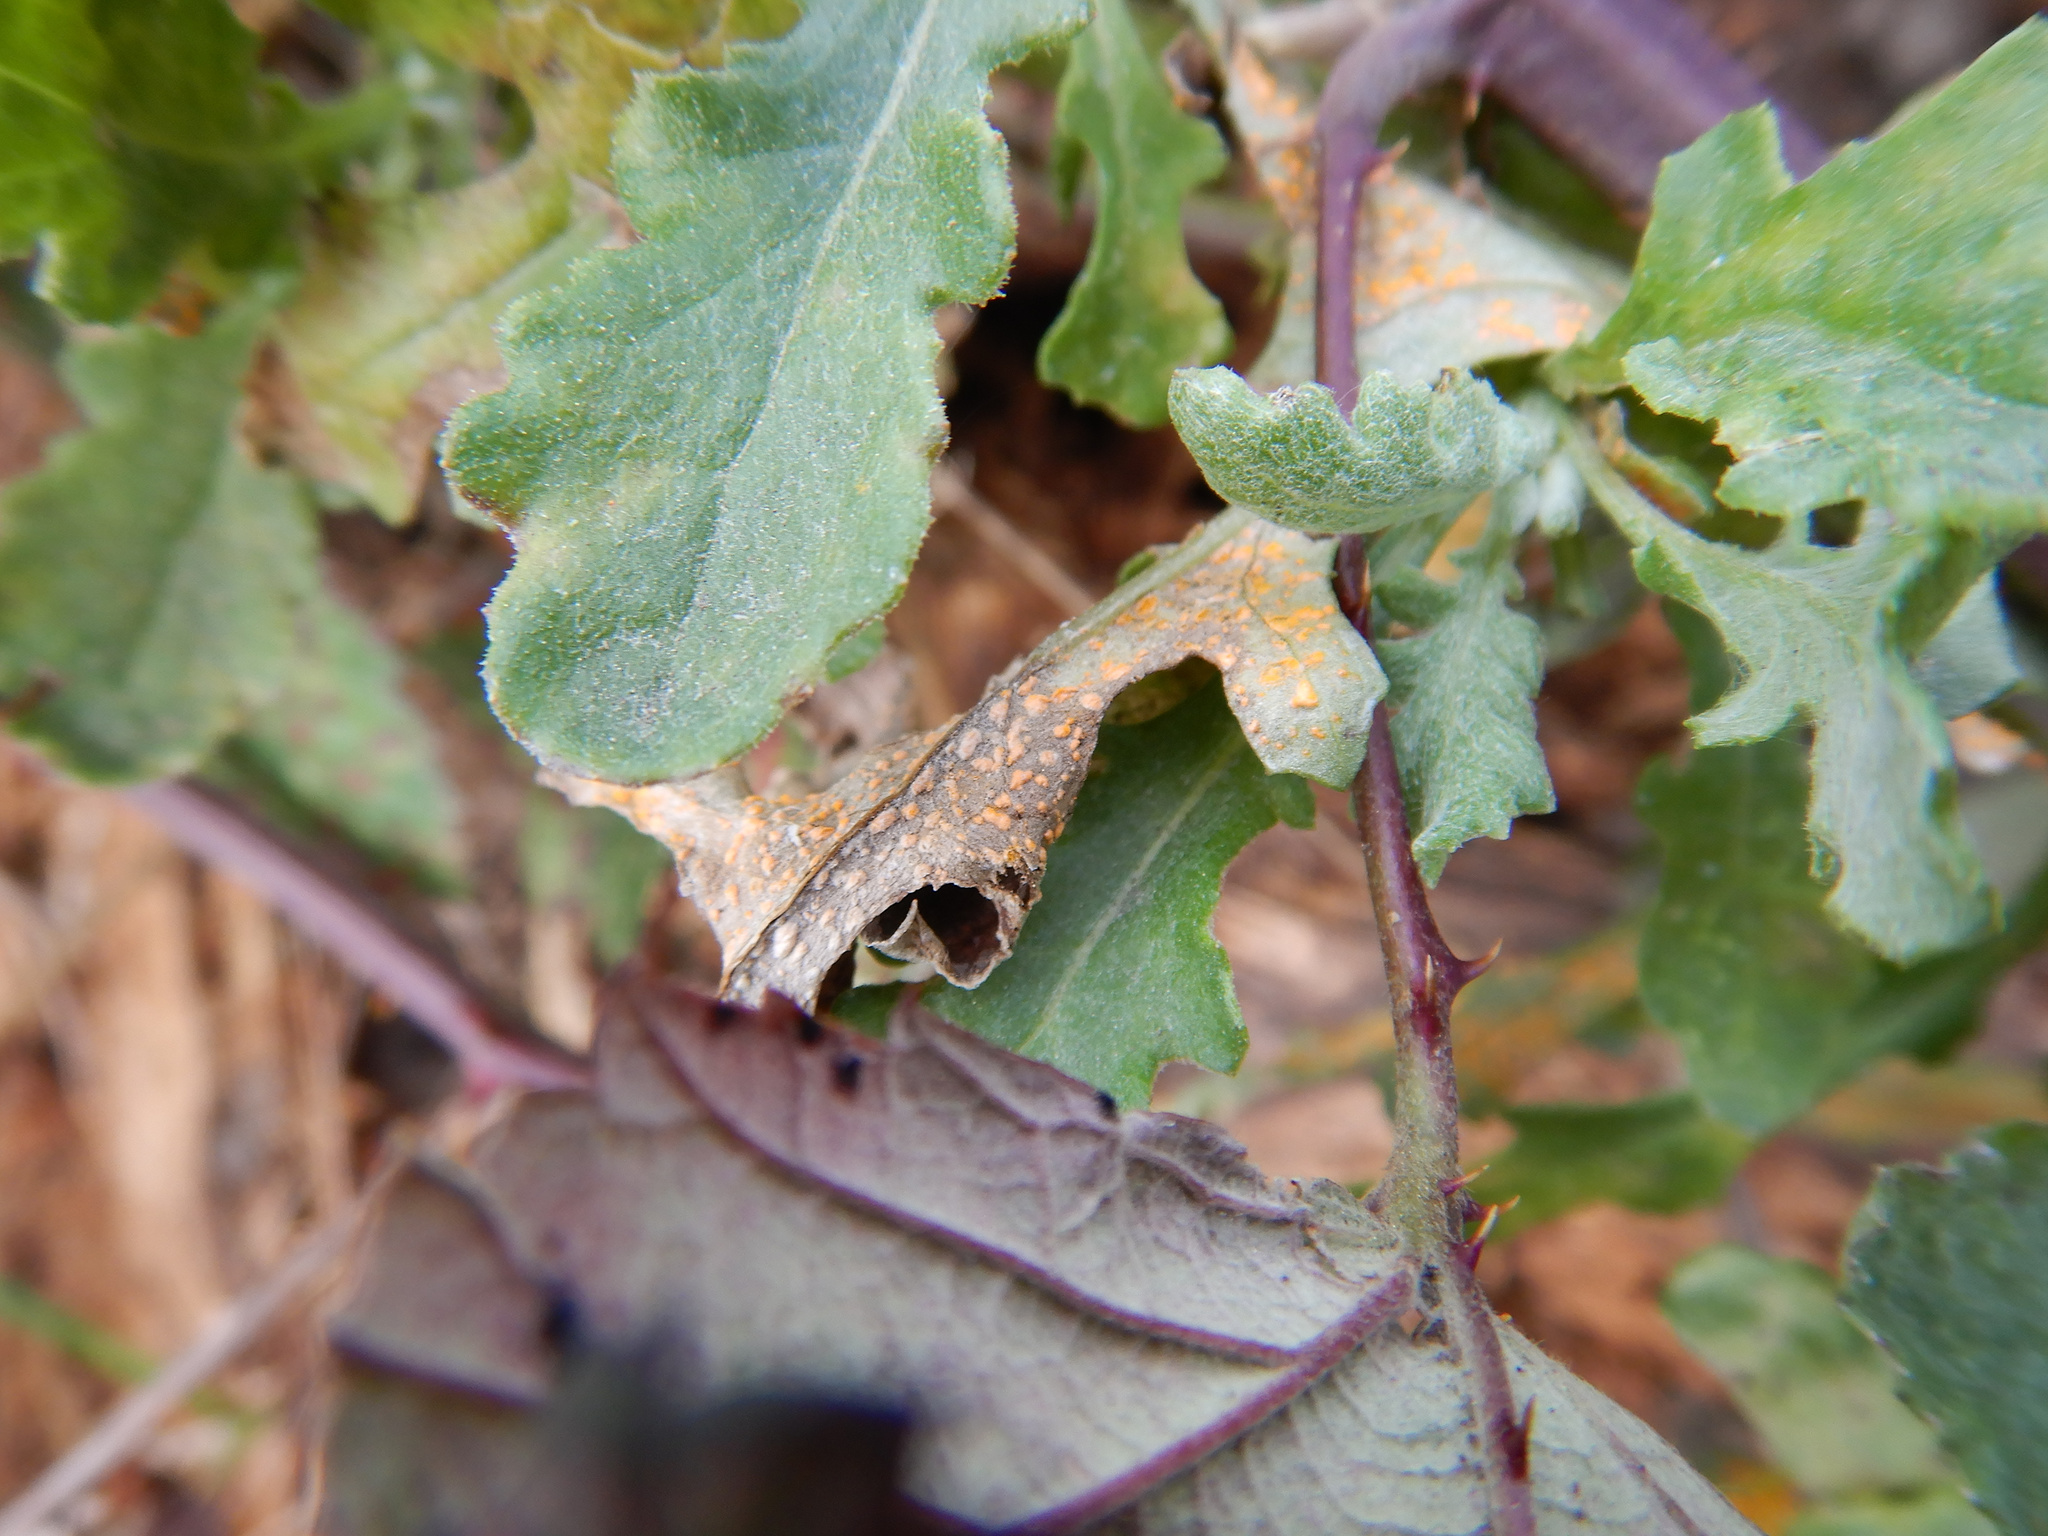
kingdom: Fungi
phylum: Basidiomycota
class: Pucciniomycetes
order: Pucciniales
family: Coleosporiaceae
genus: Coleosporium
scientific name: Coleosporium tussilaginis
